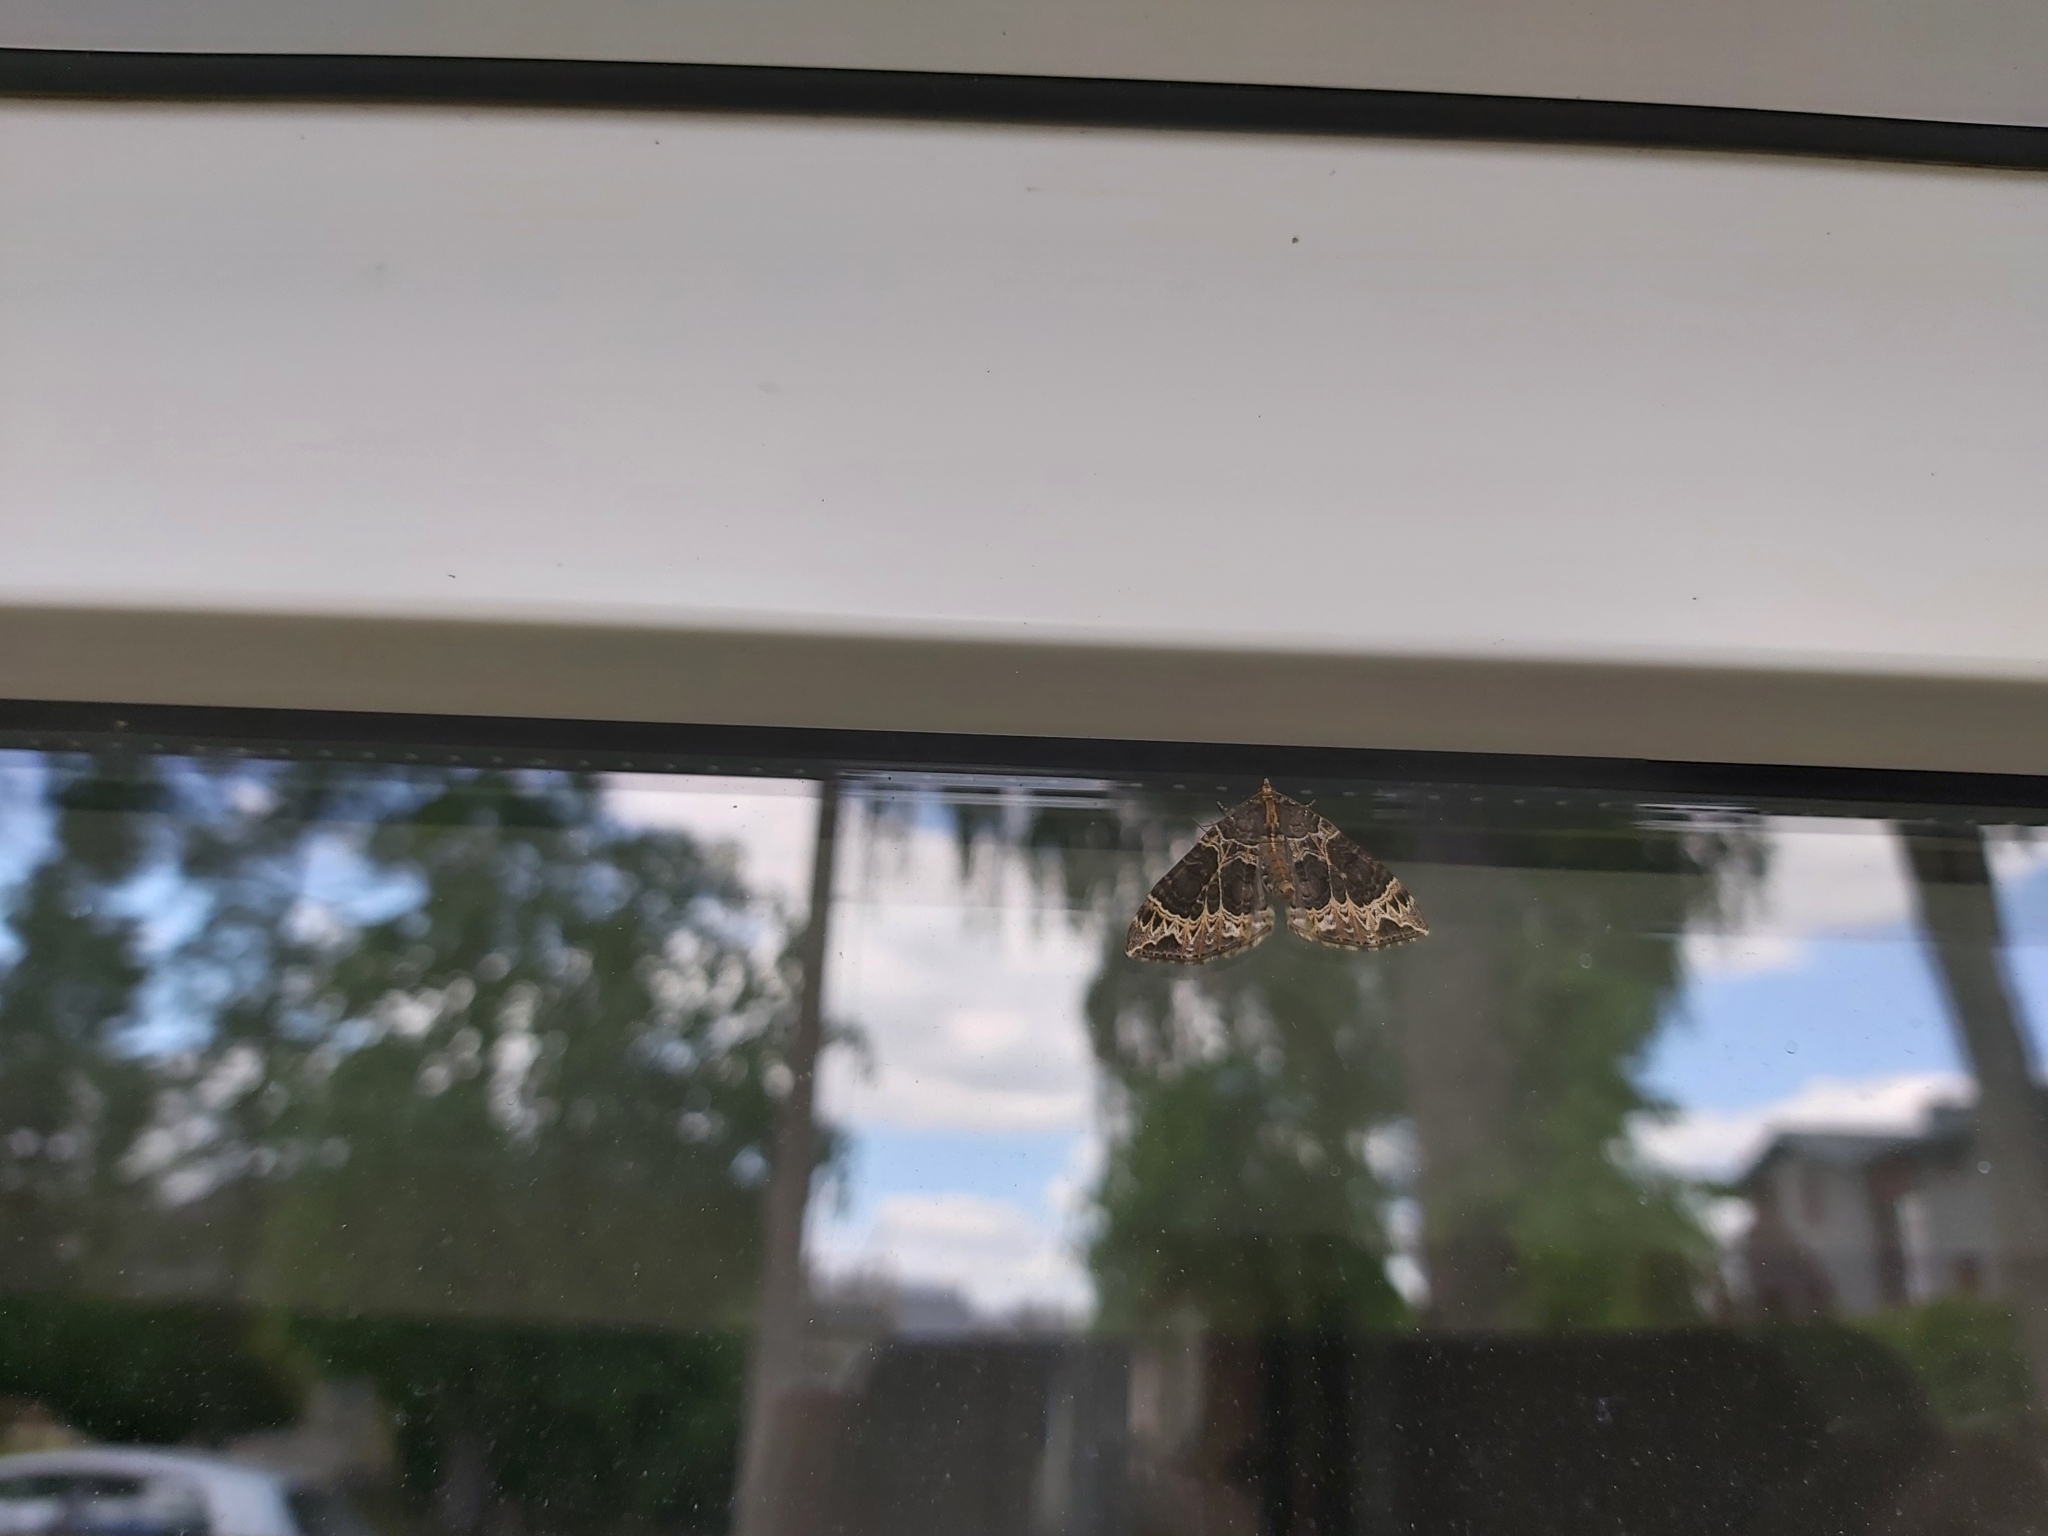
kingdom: Animalia
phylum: Arthropoda
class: Insecta
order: Lepidoptera
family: Geometridae
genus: Ecliptopera
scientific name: Ecliptopera silaceata
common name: Small phoenix
